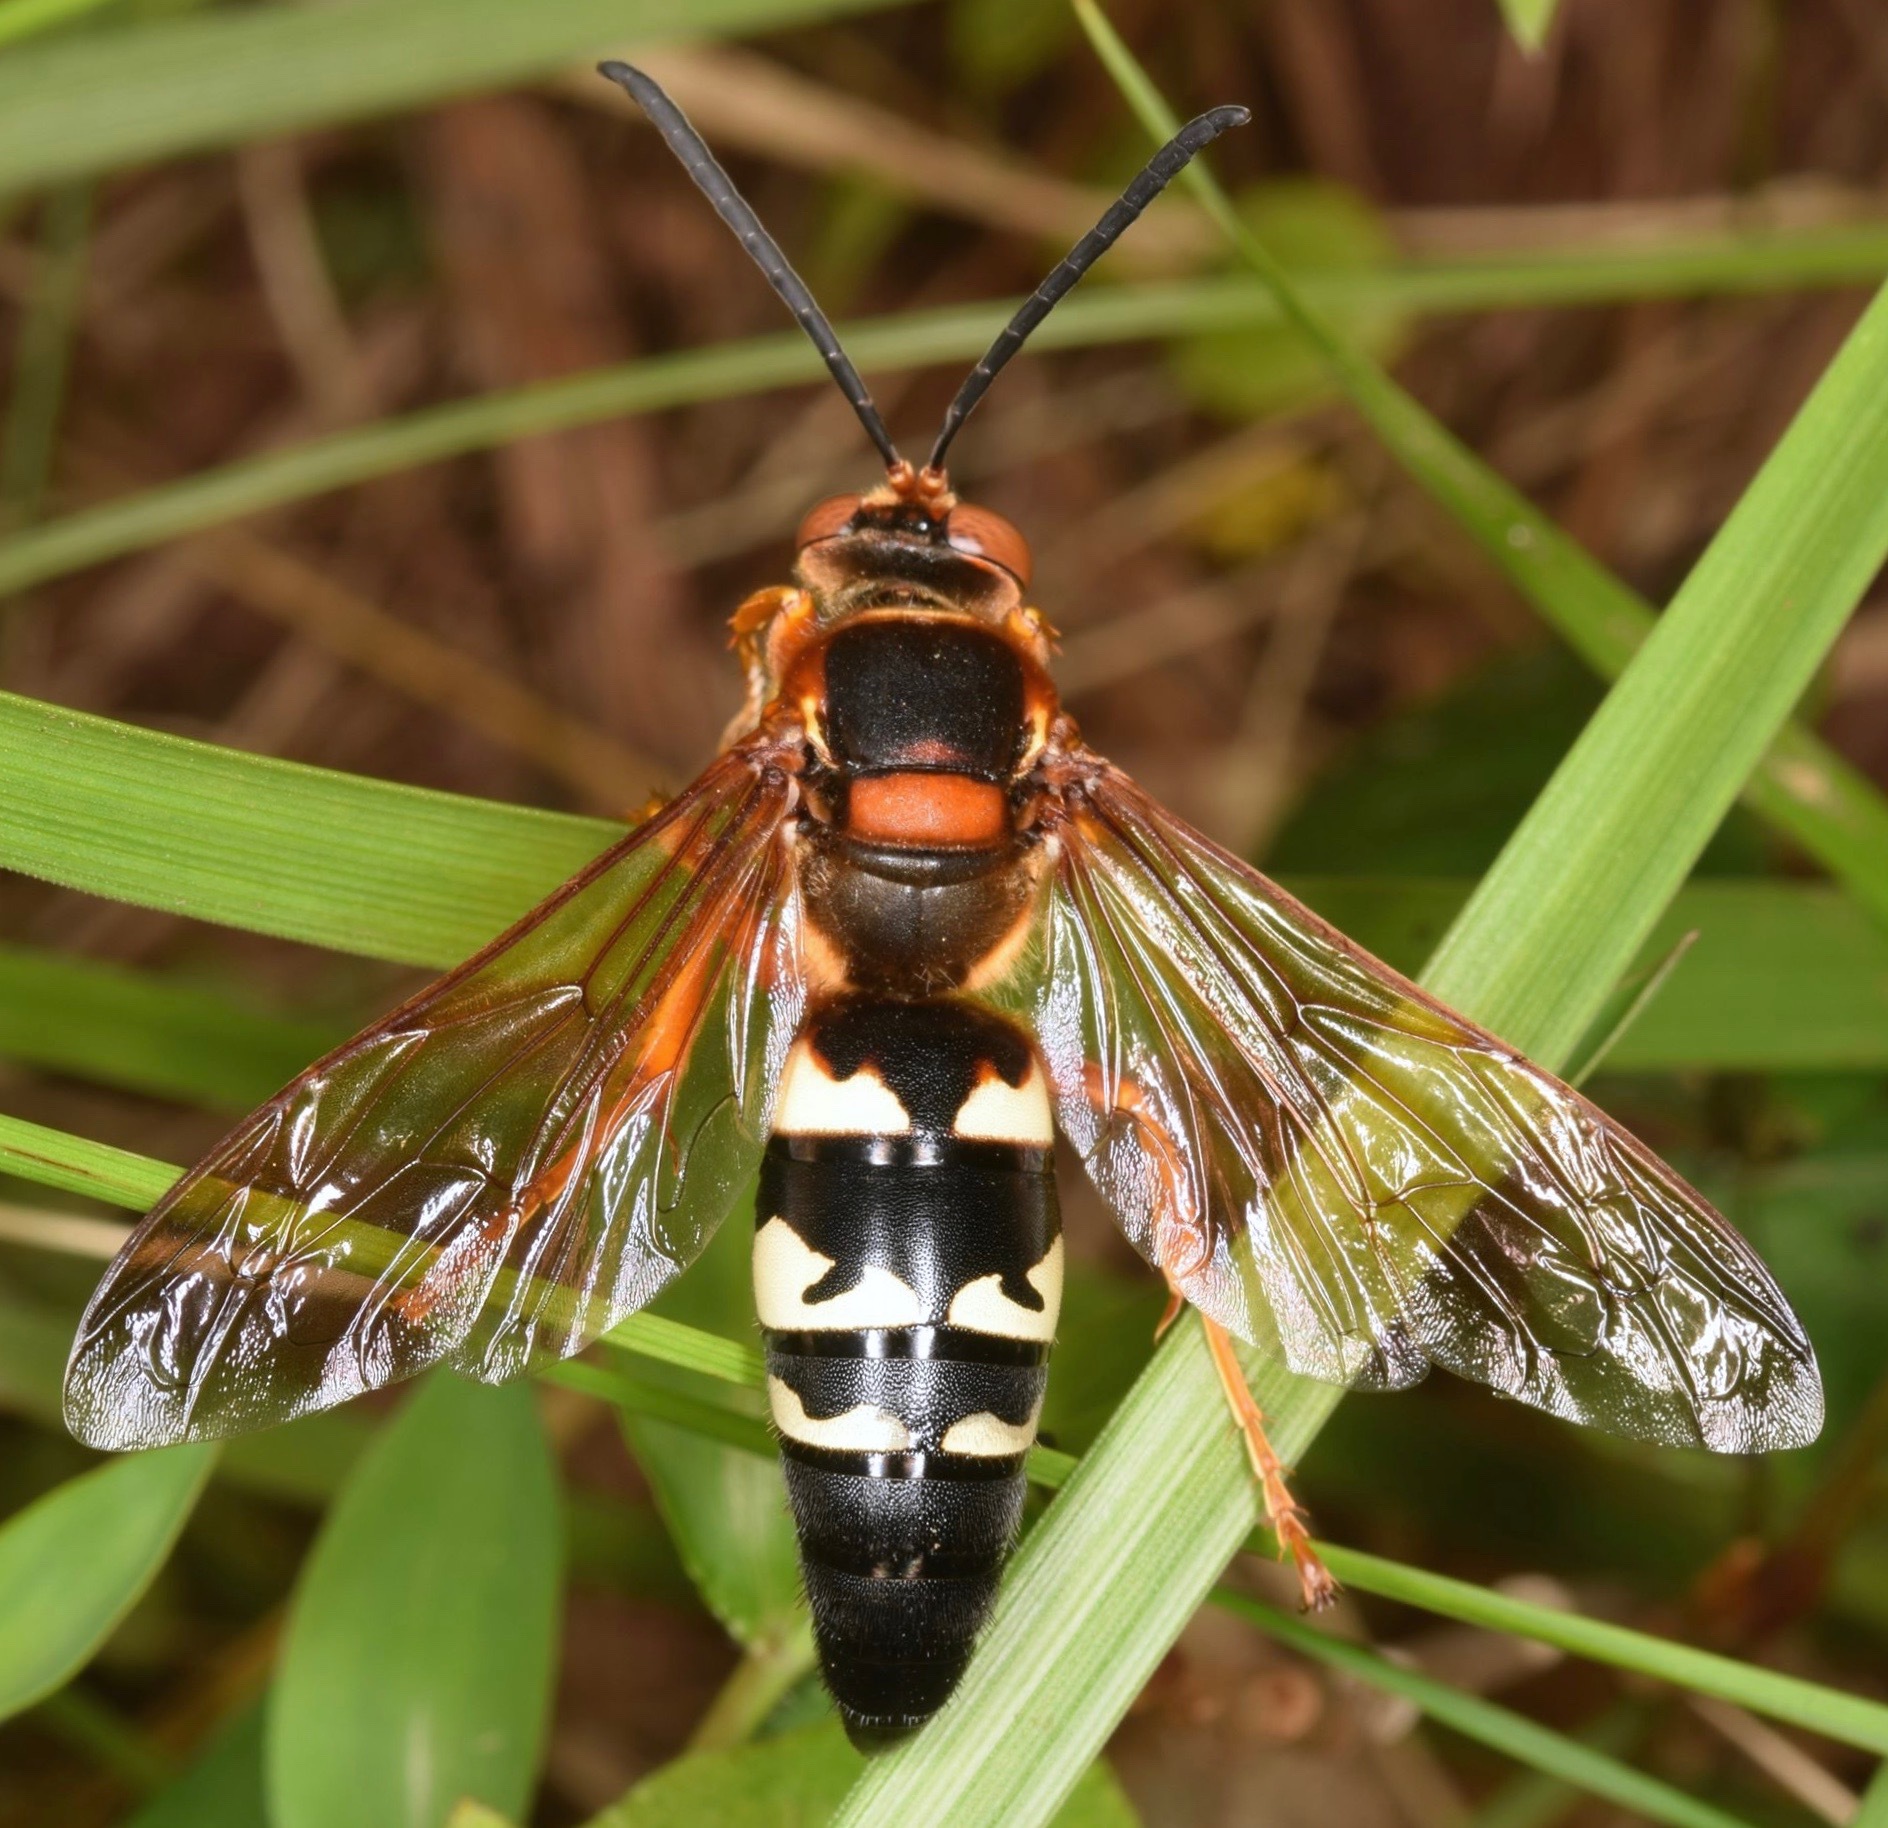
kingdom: Animalia
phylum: Arthropoda
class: Insecta
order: Hymenoptera
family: Crabronidae
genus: Sphecius
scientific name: Sphecius speciosus
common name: Cicada killer
